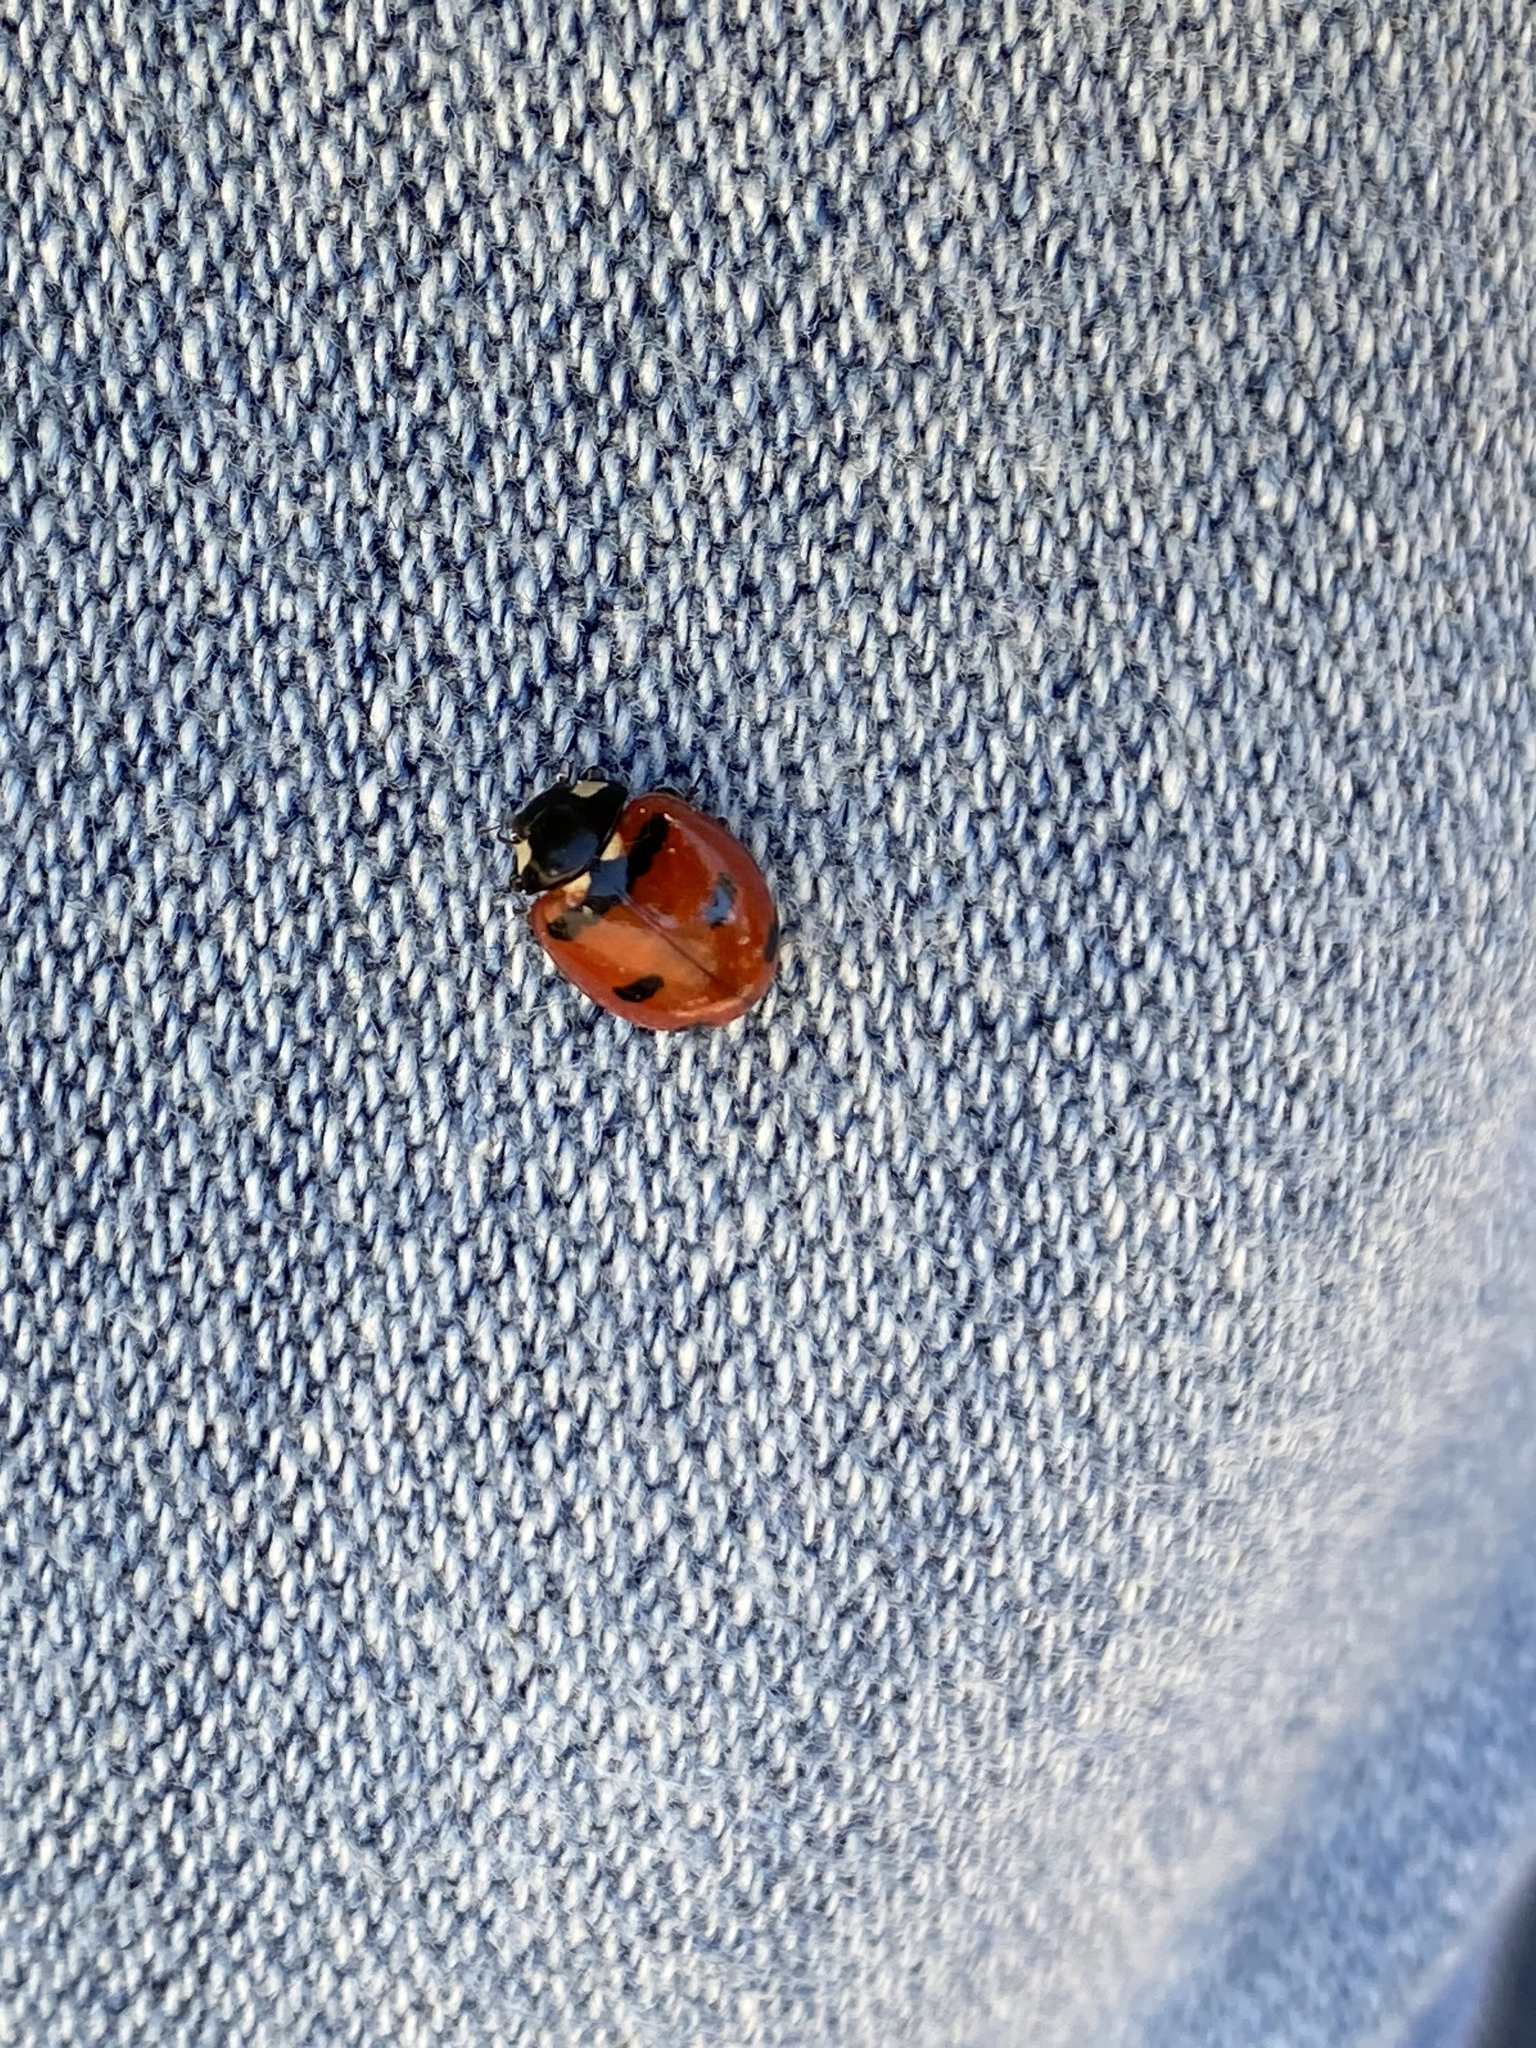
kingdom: Animalia
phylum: Arthropoda
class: Insecta
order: Coleoptera
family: Coccinellidae
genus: Coccinella
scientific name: Coccinella transversoguttata
